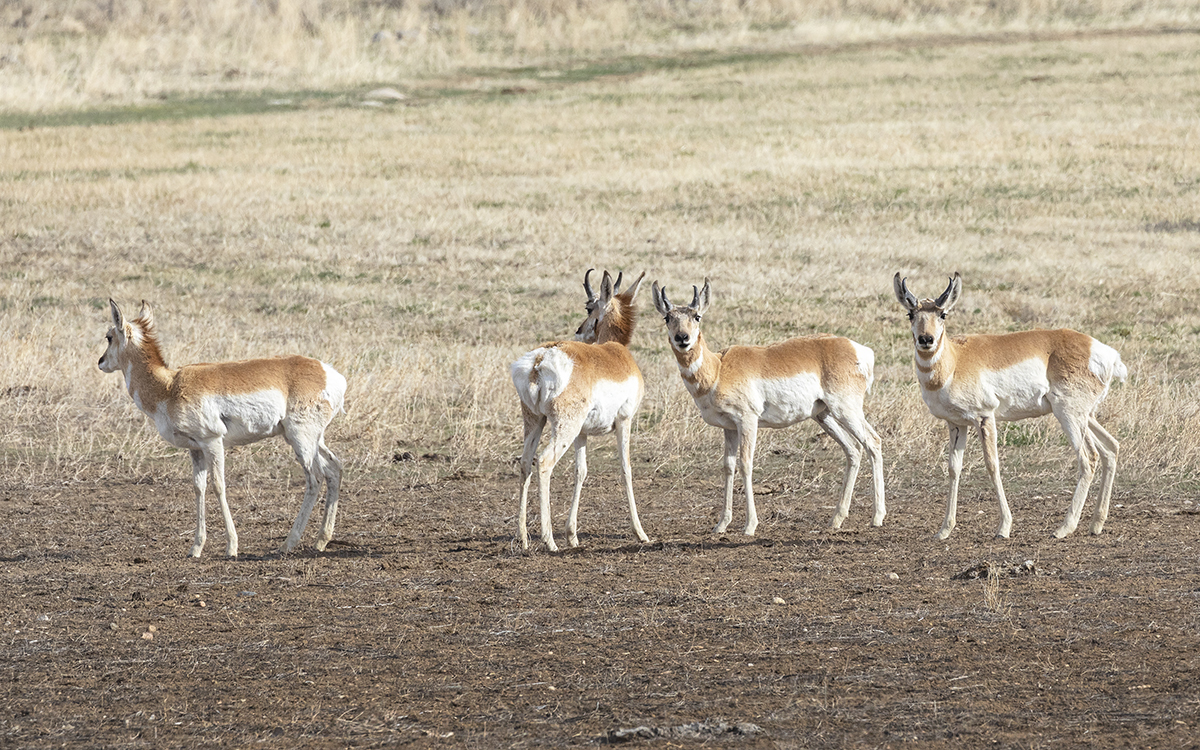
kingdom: Animalia
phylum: Chordata
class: Mammalia
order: Artiodactyla
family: Antilocapridae
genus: Antilocapra
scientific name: Antilocapra americana
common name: Pronghorn
